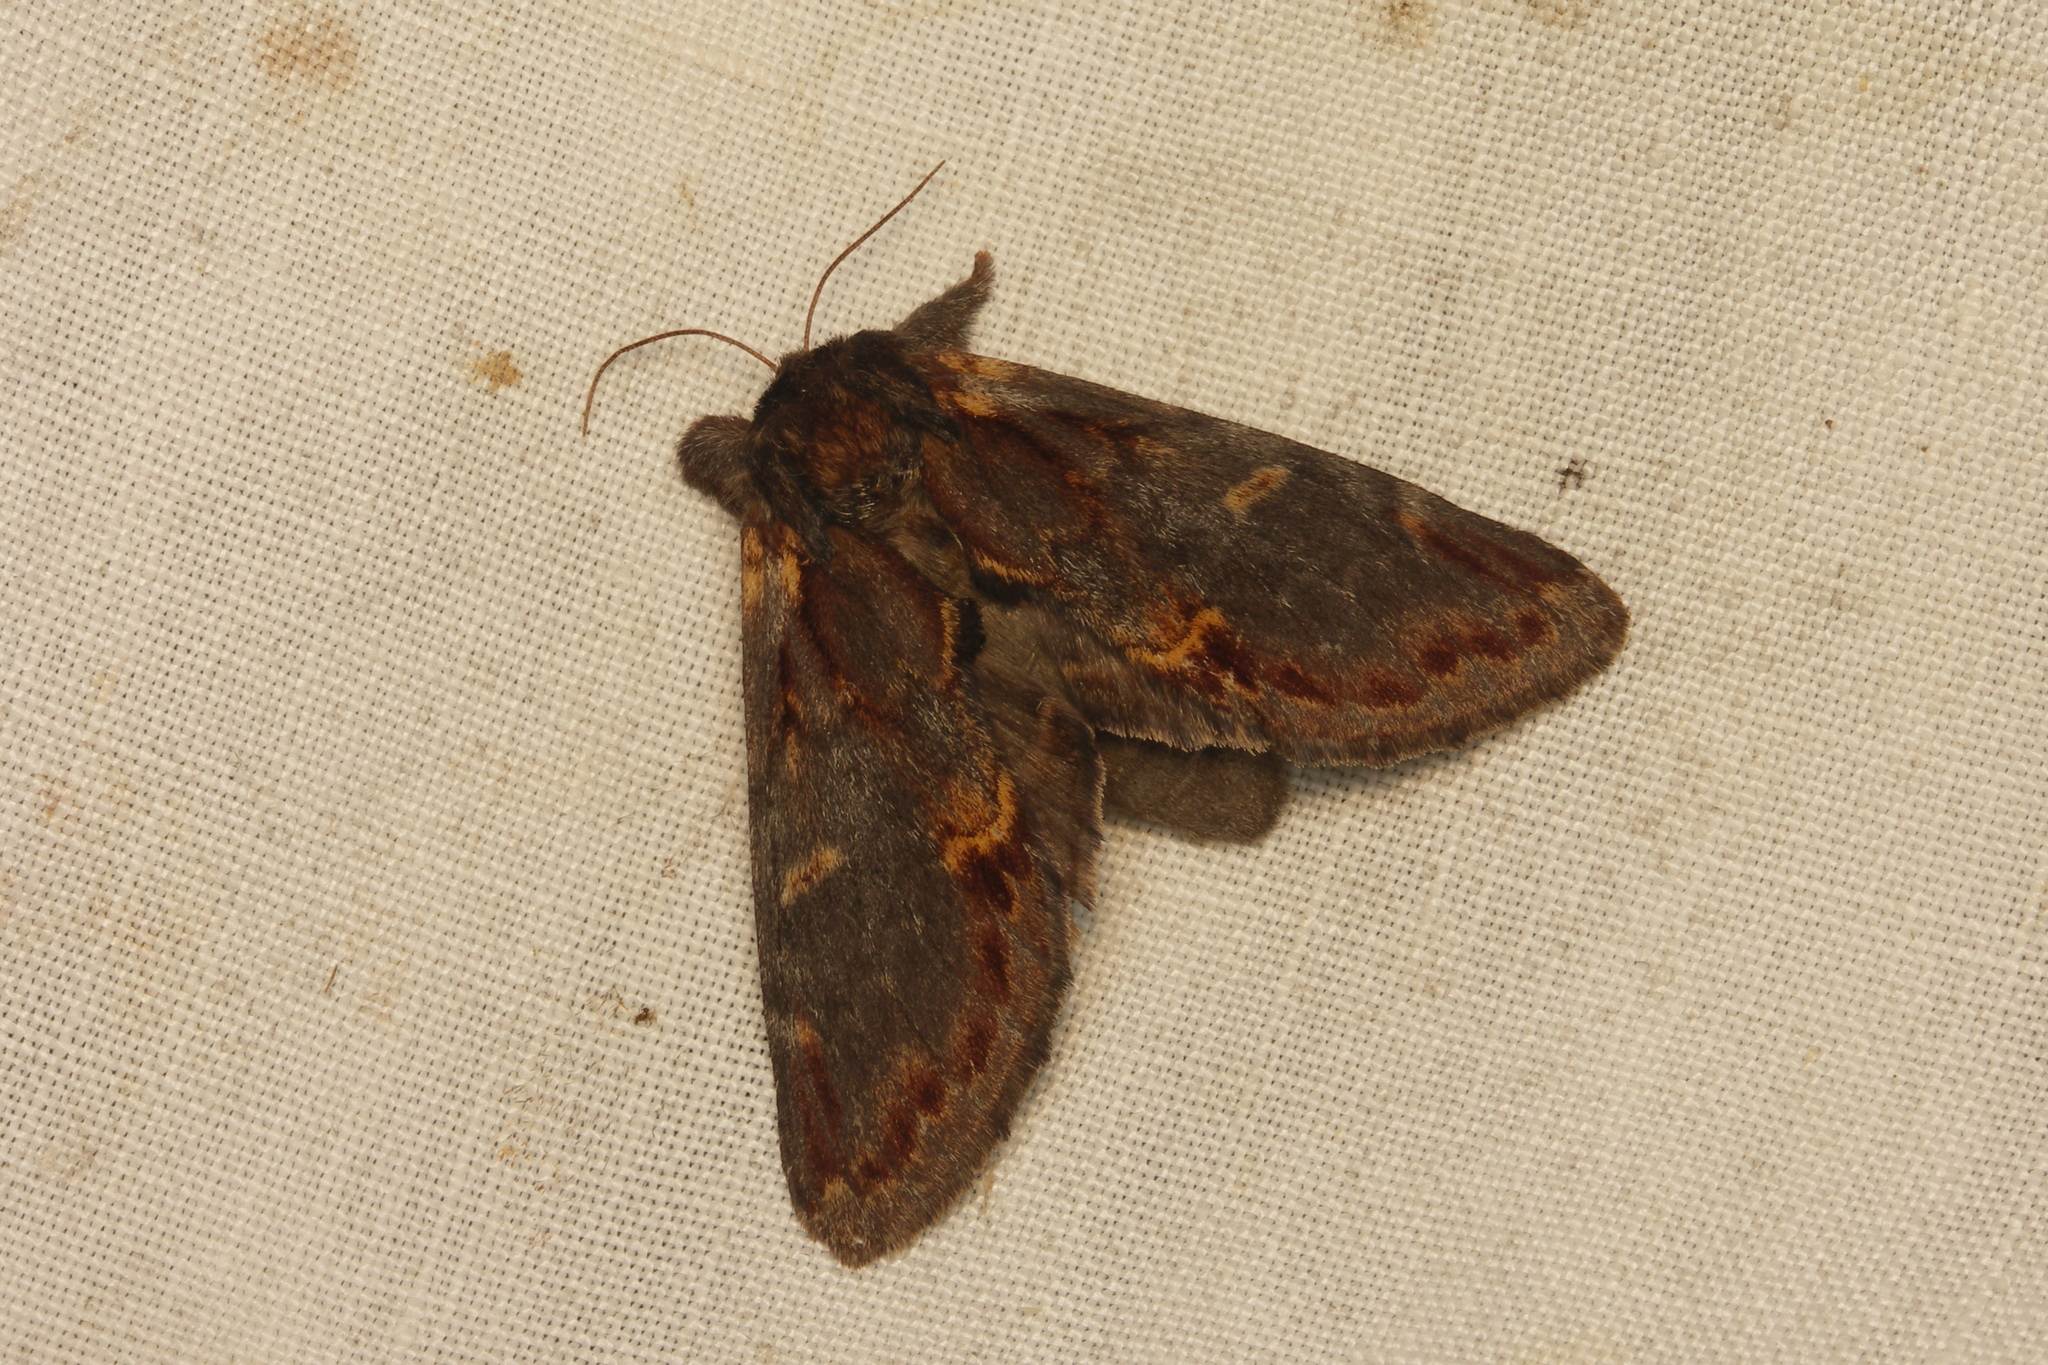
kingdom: Animalia
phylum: Arthropoda
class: Insecta
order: Lepidoptera
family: Notodontidae
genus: Notodonta
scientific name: Notodonta dromedarius
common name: Iron prominent
